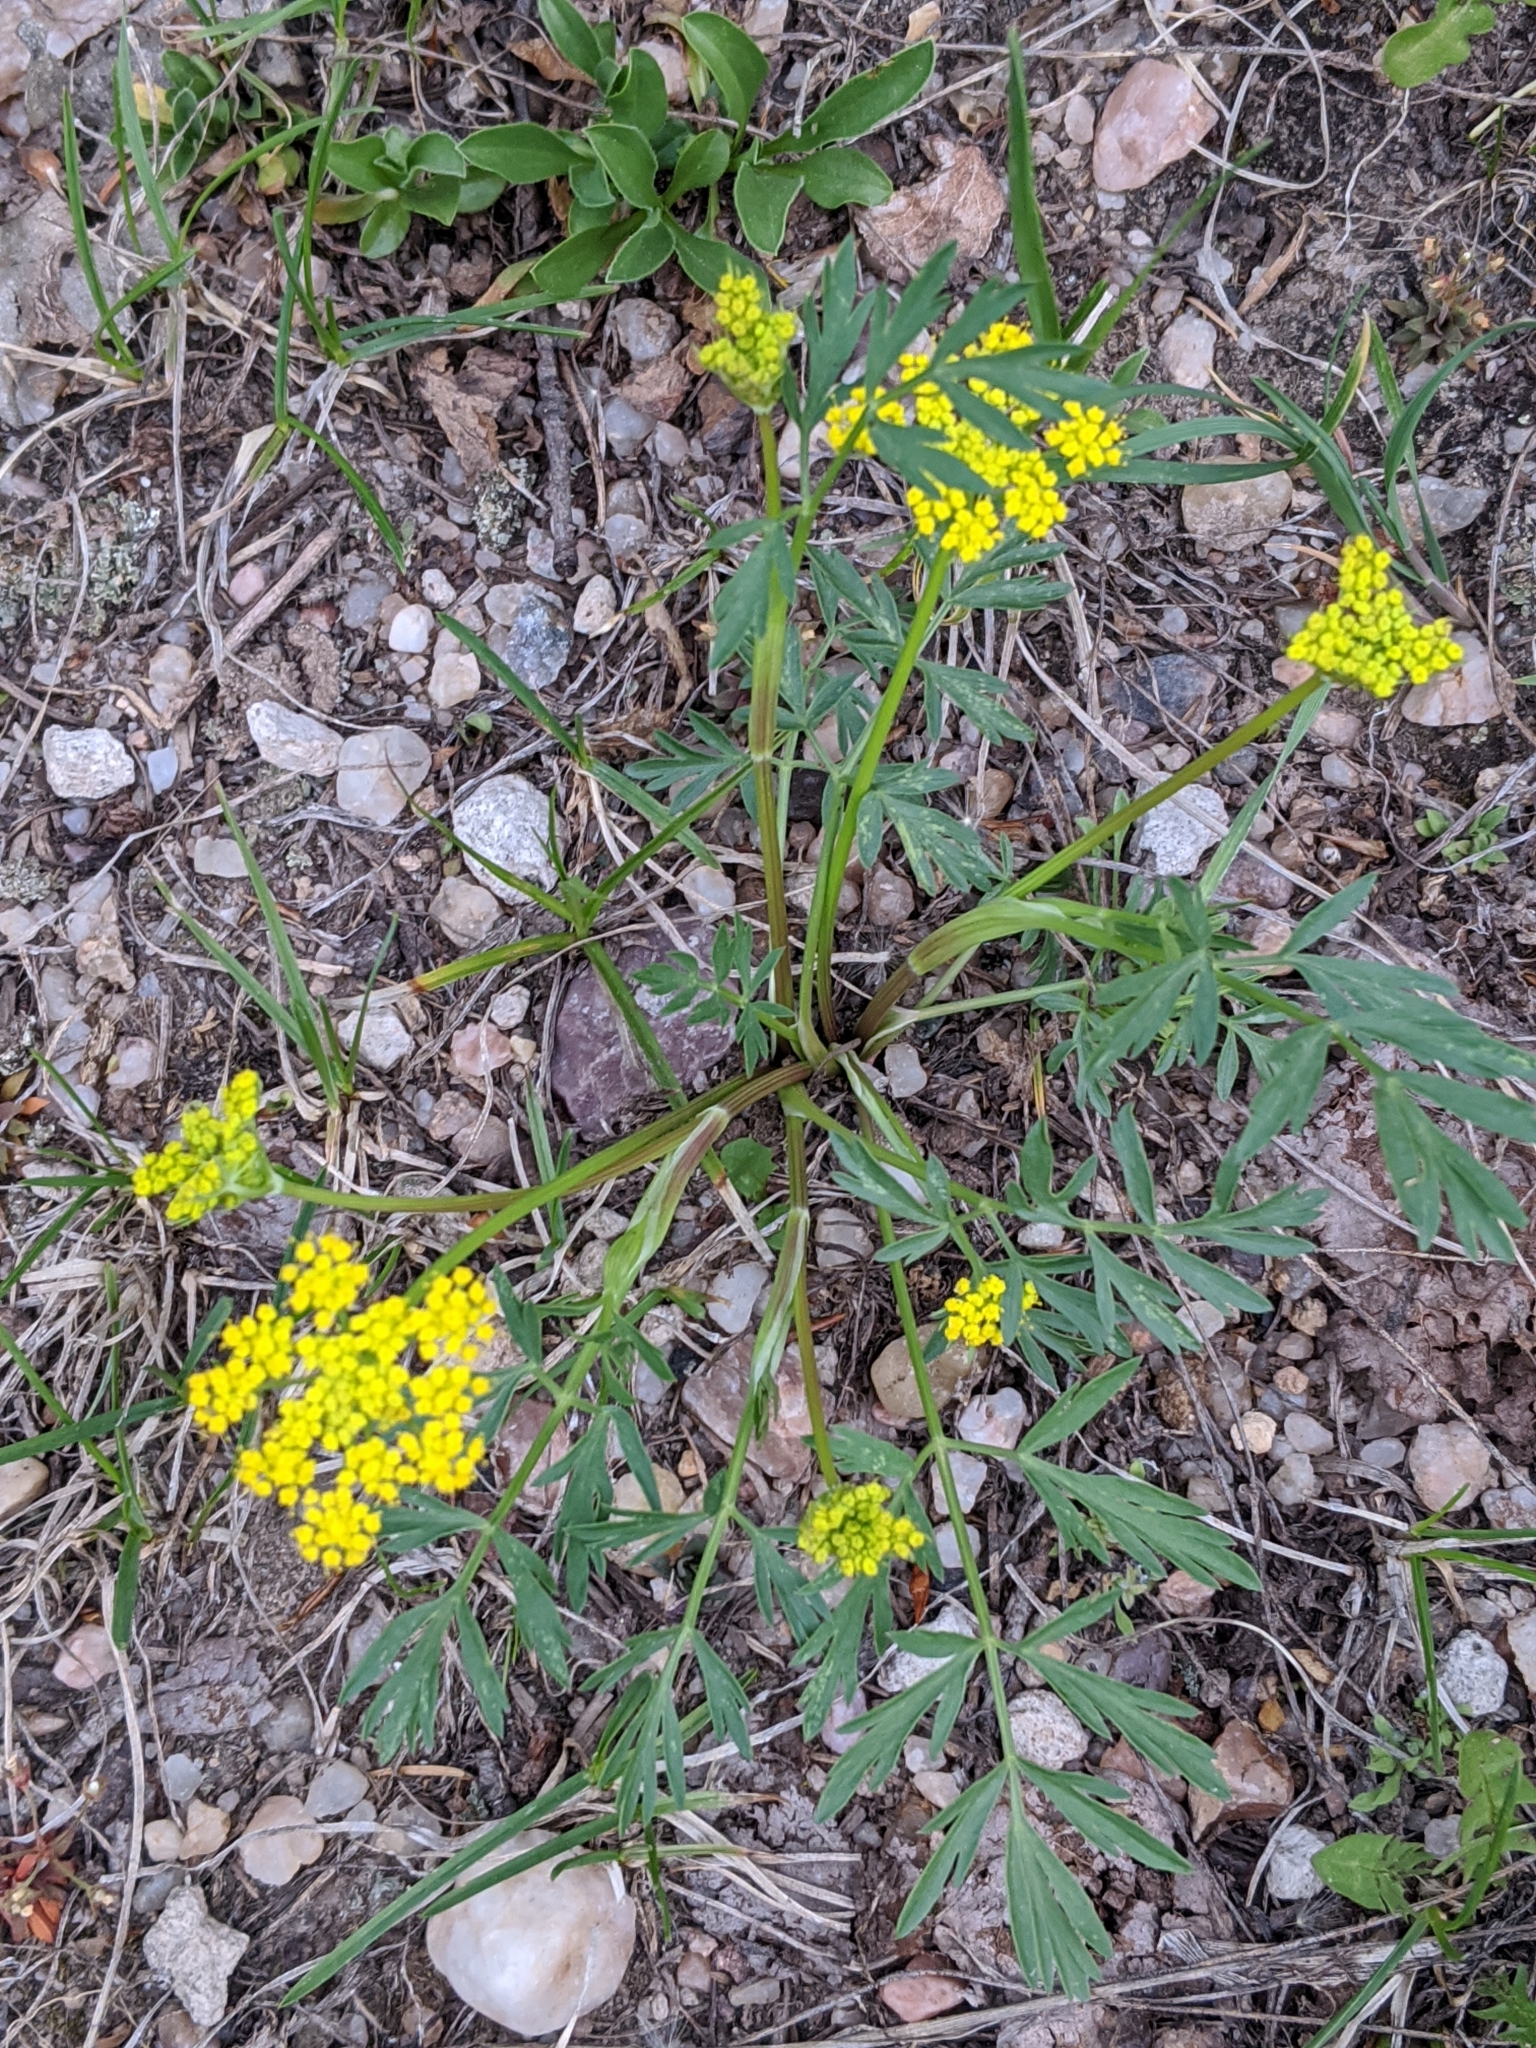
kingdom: Plantae
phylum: Tracheophyta
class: Magnoliopsida
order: Apiales
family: Apiaceae
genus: Cymopterus
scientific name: Cymopterus lemmonii
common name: Lemmon's spring-parsley
